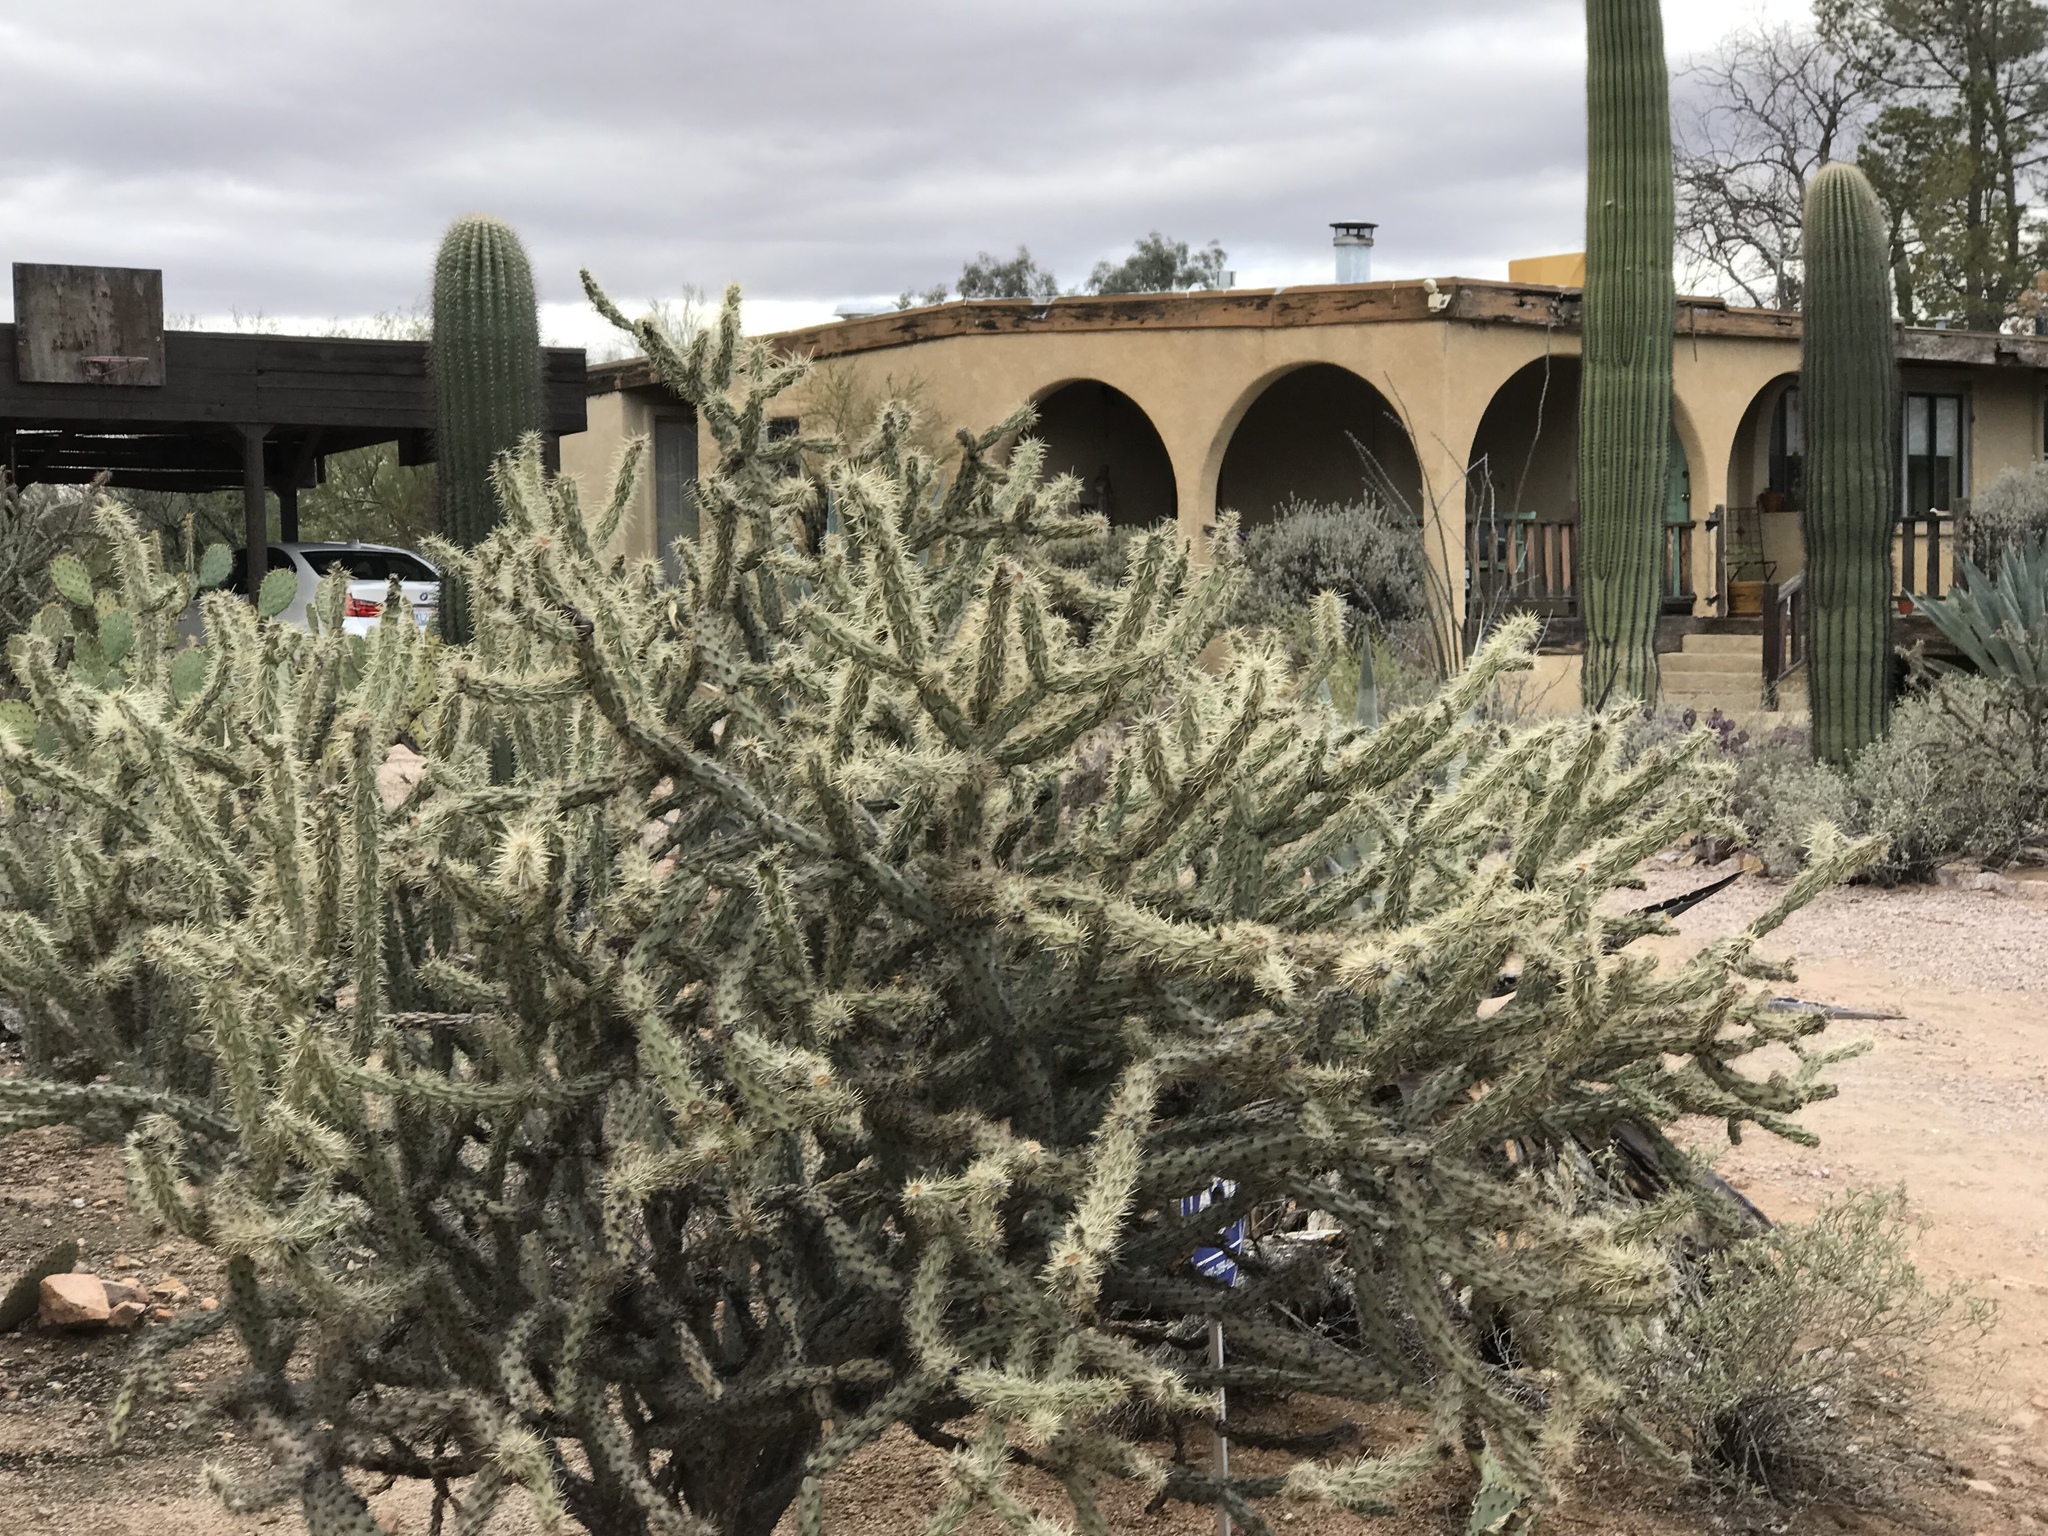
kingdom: Plantae
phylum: Tracheophyta
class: Magnoliopsida
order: Caryophyllales
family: Cactaceae
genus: Cylindropuntia
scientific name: Cylindropuntia acanthocarpa
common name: Buckhorn cholla
